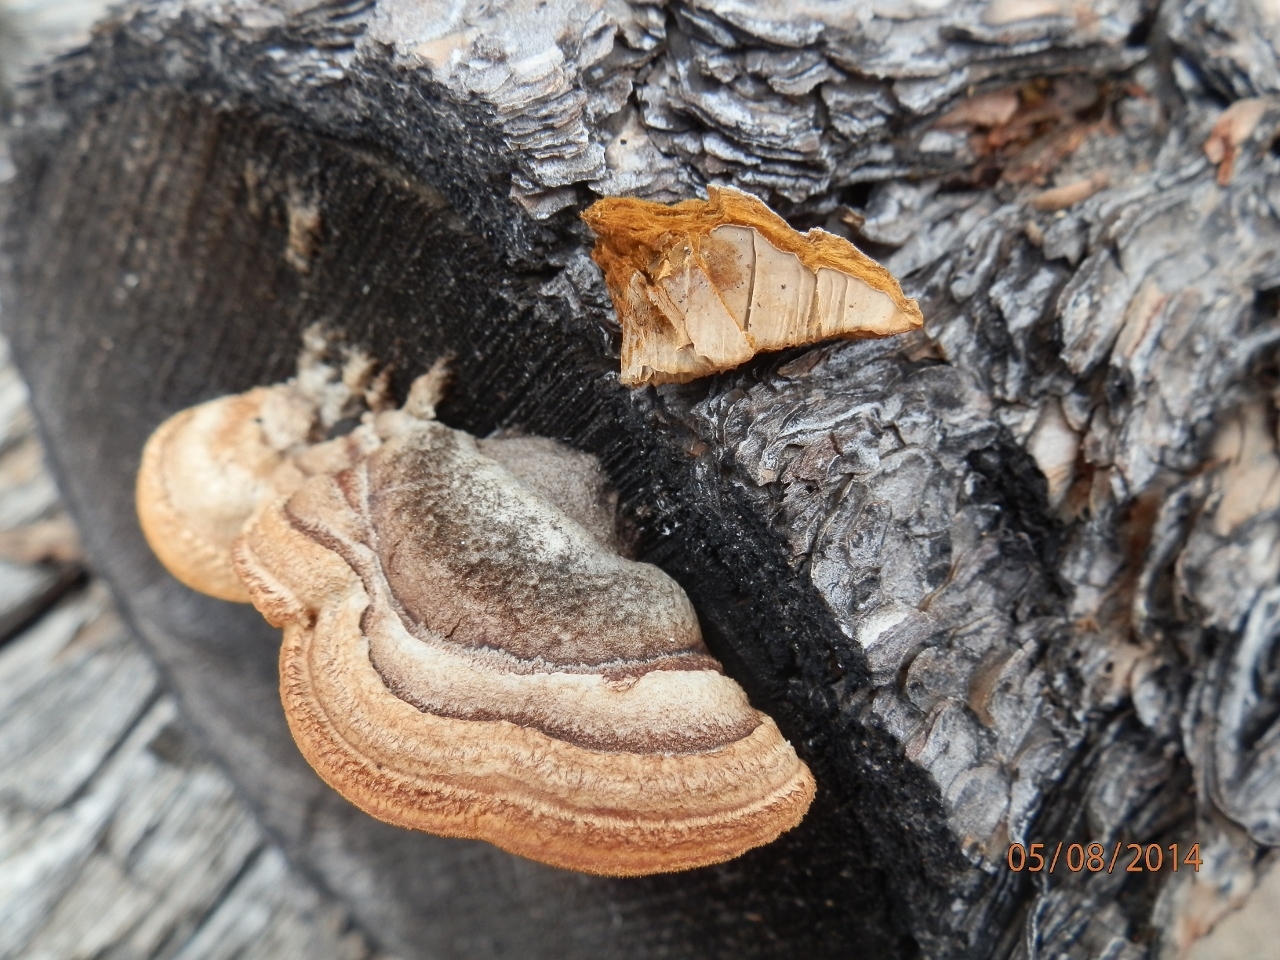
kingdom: Fungi
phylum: Basidiomycota
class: Agaricomycetes
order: Gloeophyllales
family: Gloeophyllaceae
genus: Gloeophyllum
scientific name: Gloeophyllum sepiarium
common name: Conifer mazegill
